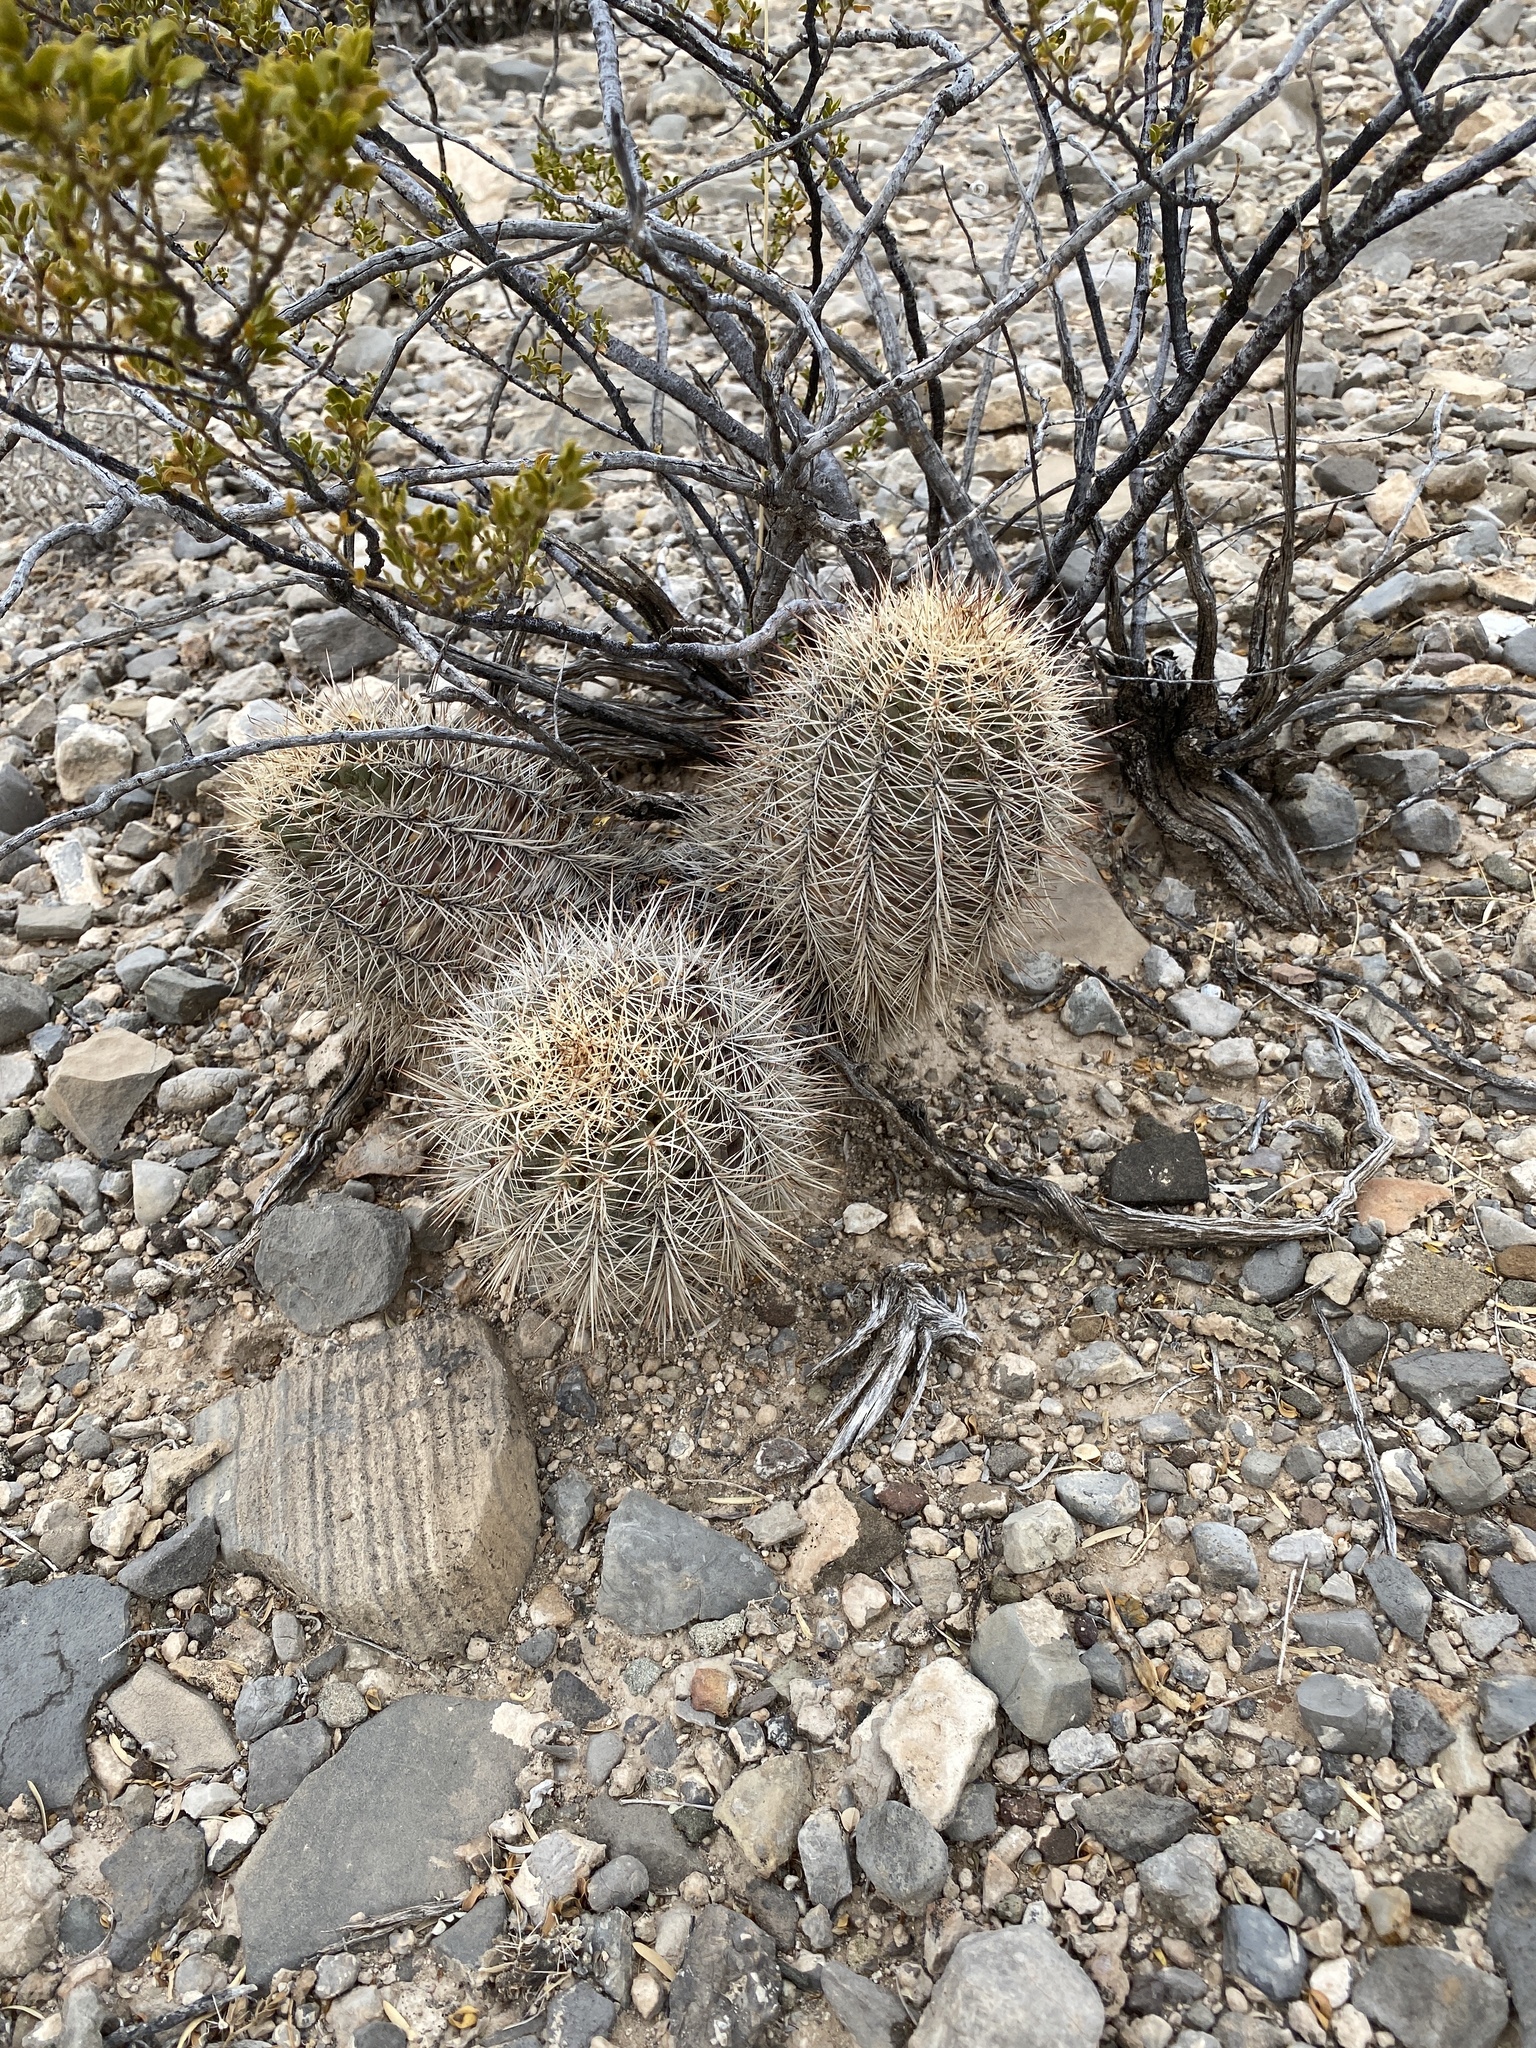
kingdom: Plantae
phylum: Tracheophyta
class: Magnoliopsida
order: Caryophyllales
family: Cactaceae
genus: Echinocereus
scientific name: Echinocereus coccineus
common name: Scarlet hedgehog cactus
